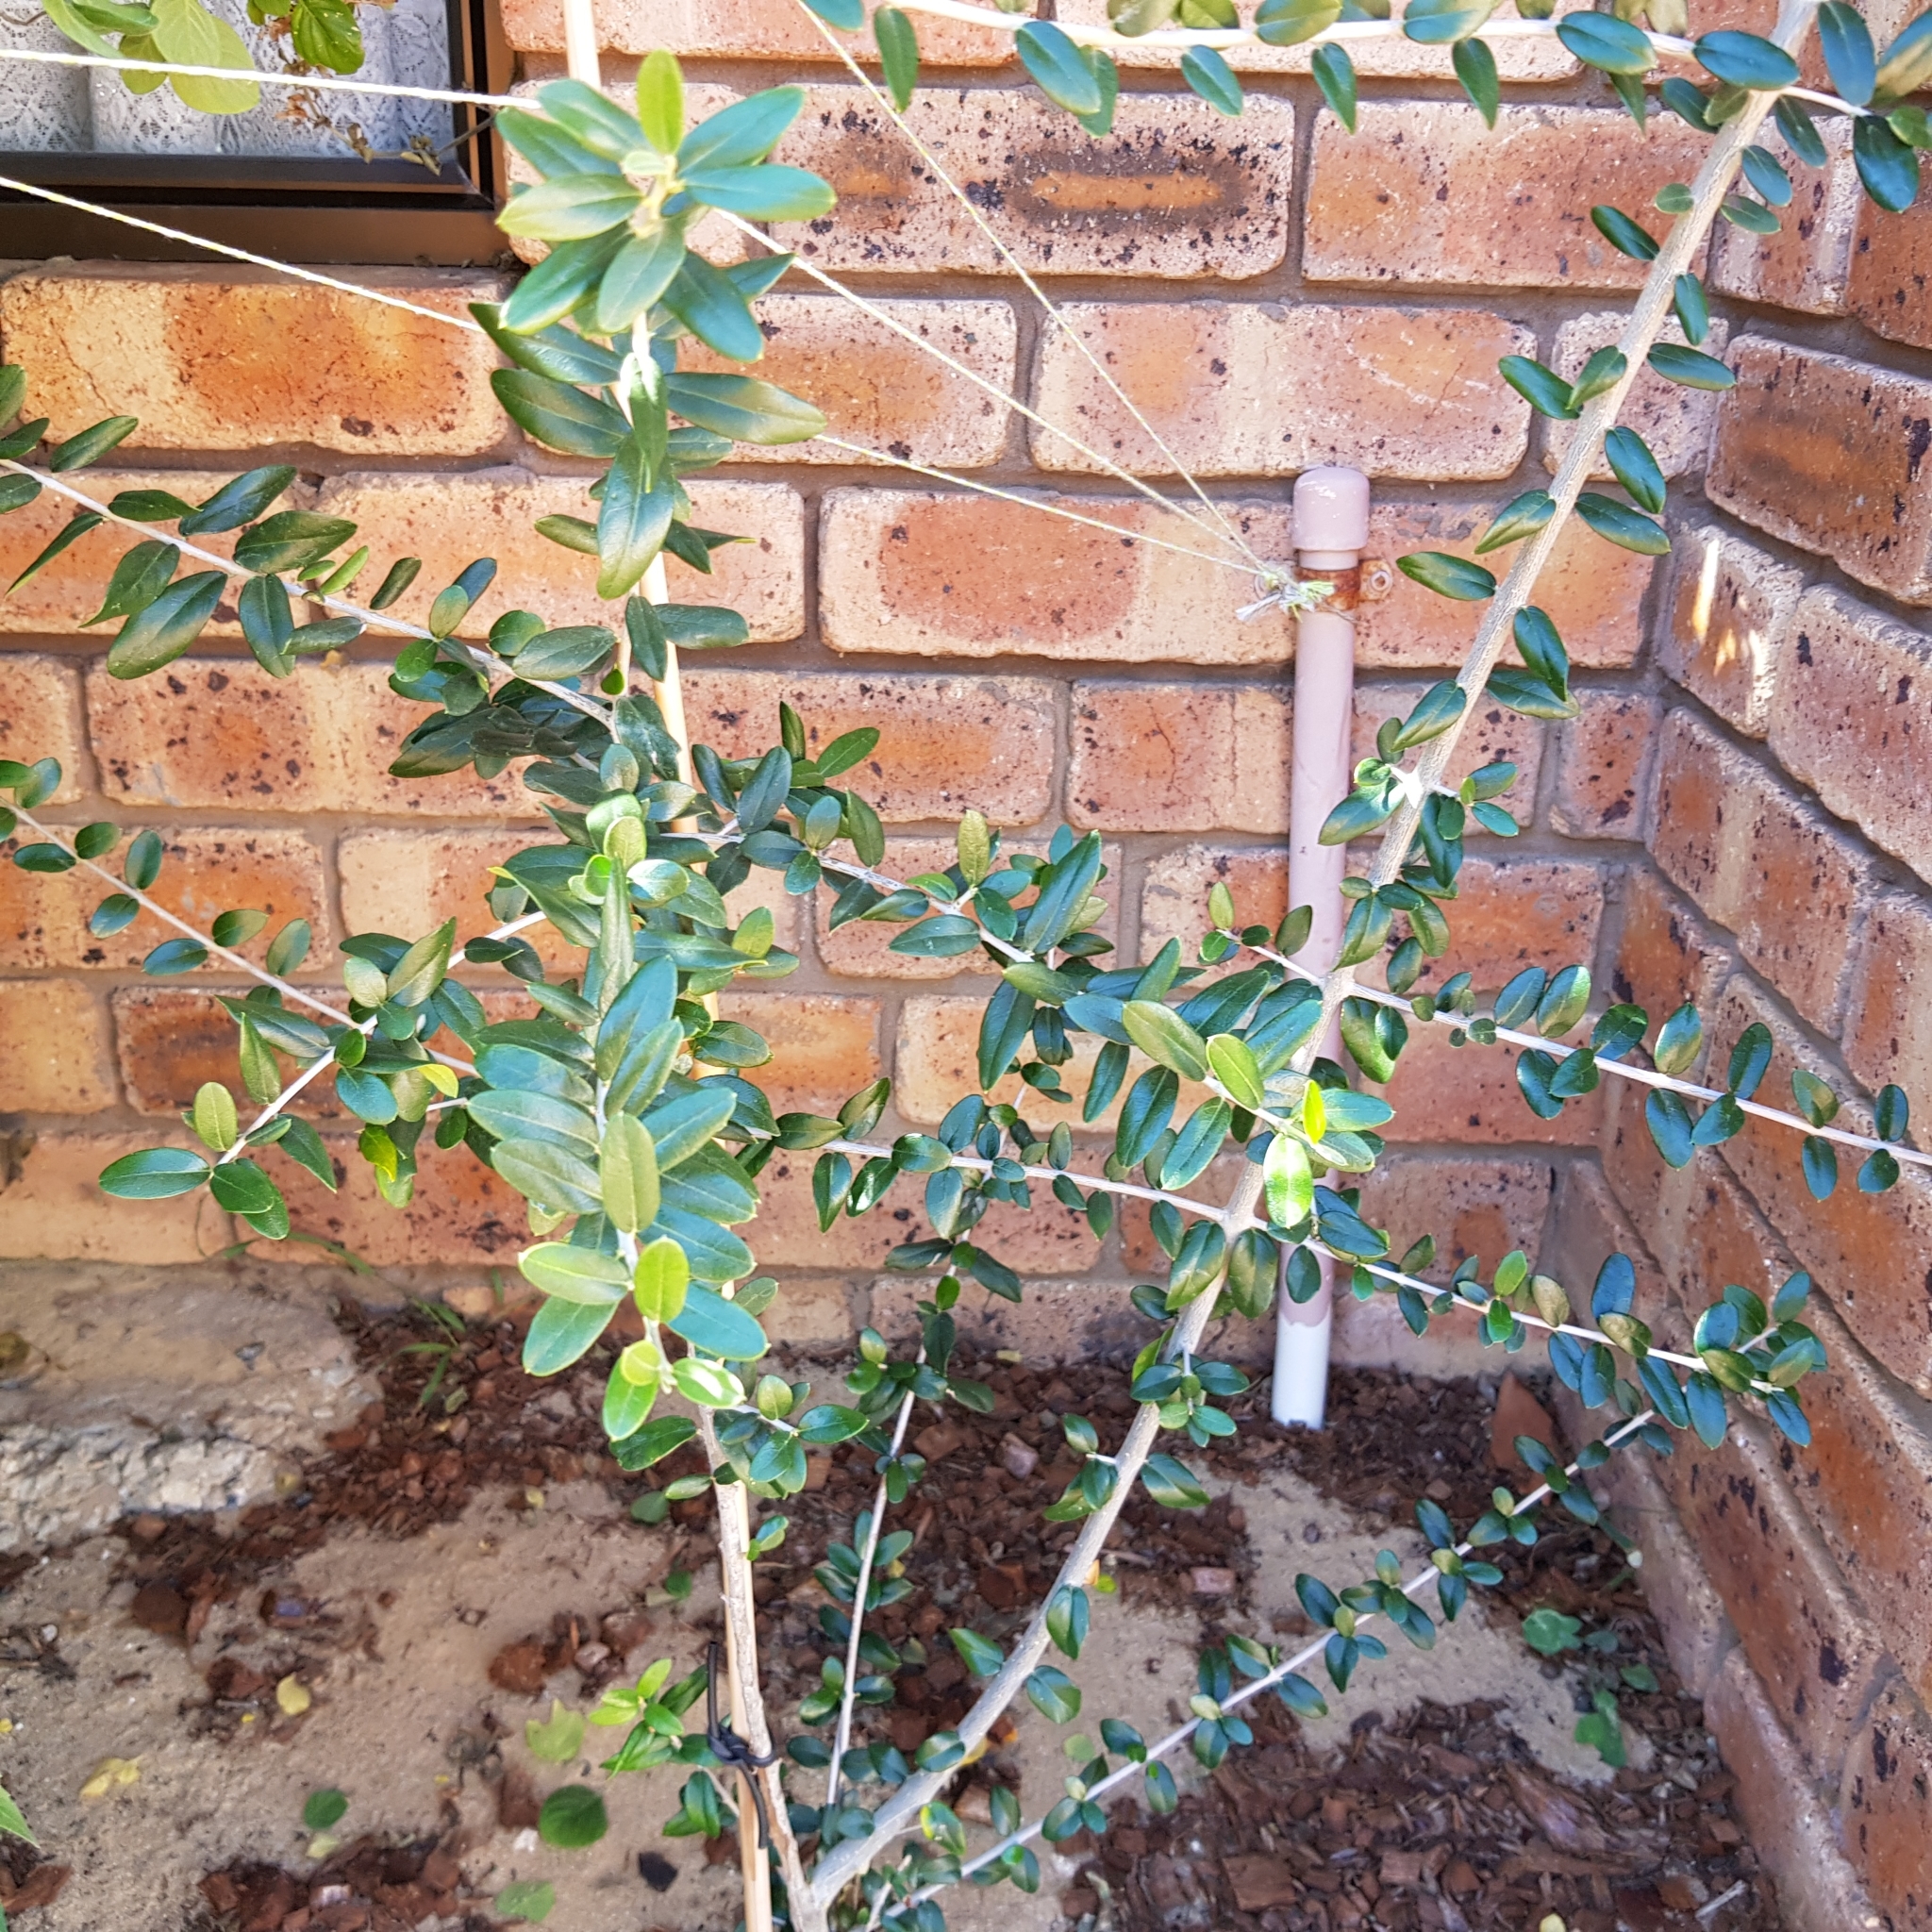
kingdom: Plantae
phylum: Tracheophyta
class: Magnoliopsida
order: Lamiales
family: Oleaceae
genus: Olea
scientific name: Olea europaea
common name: Olive
